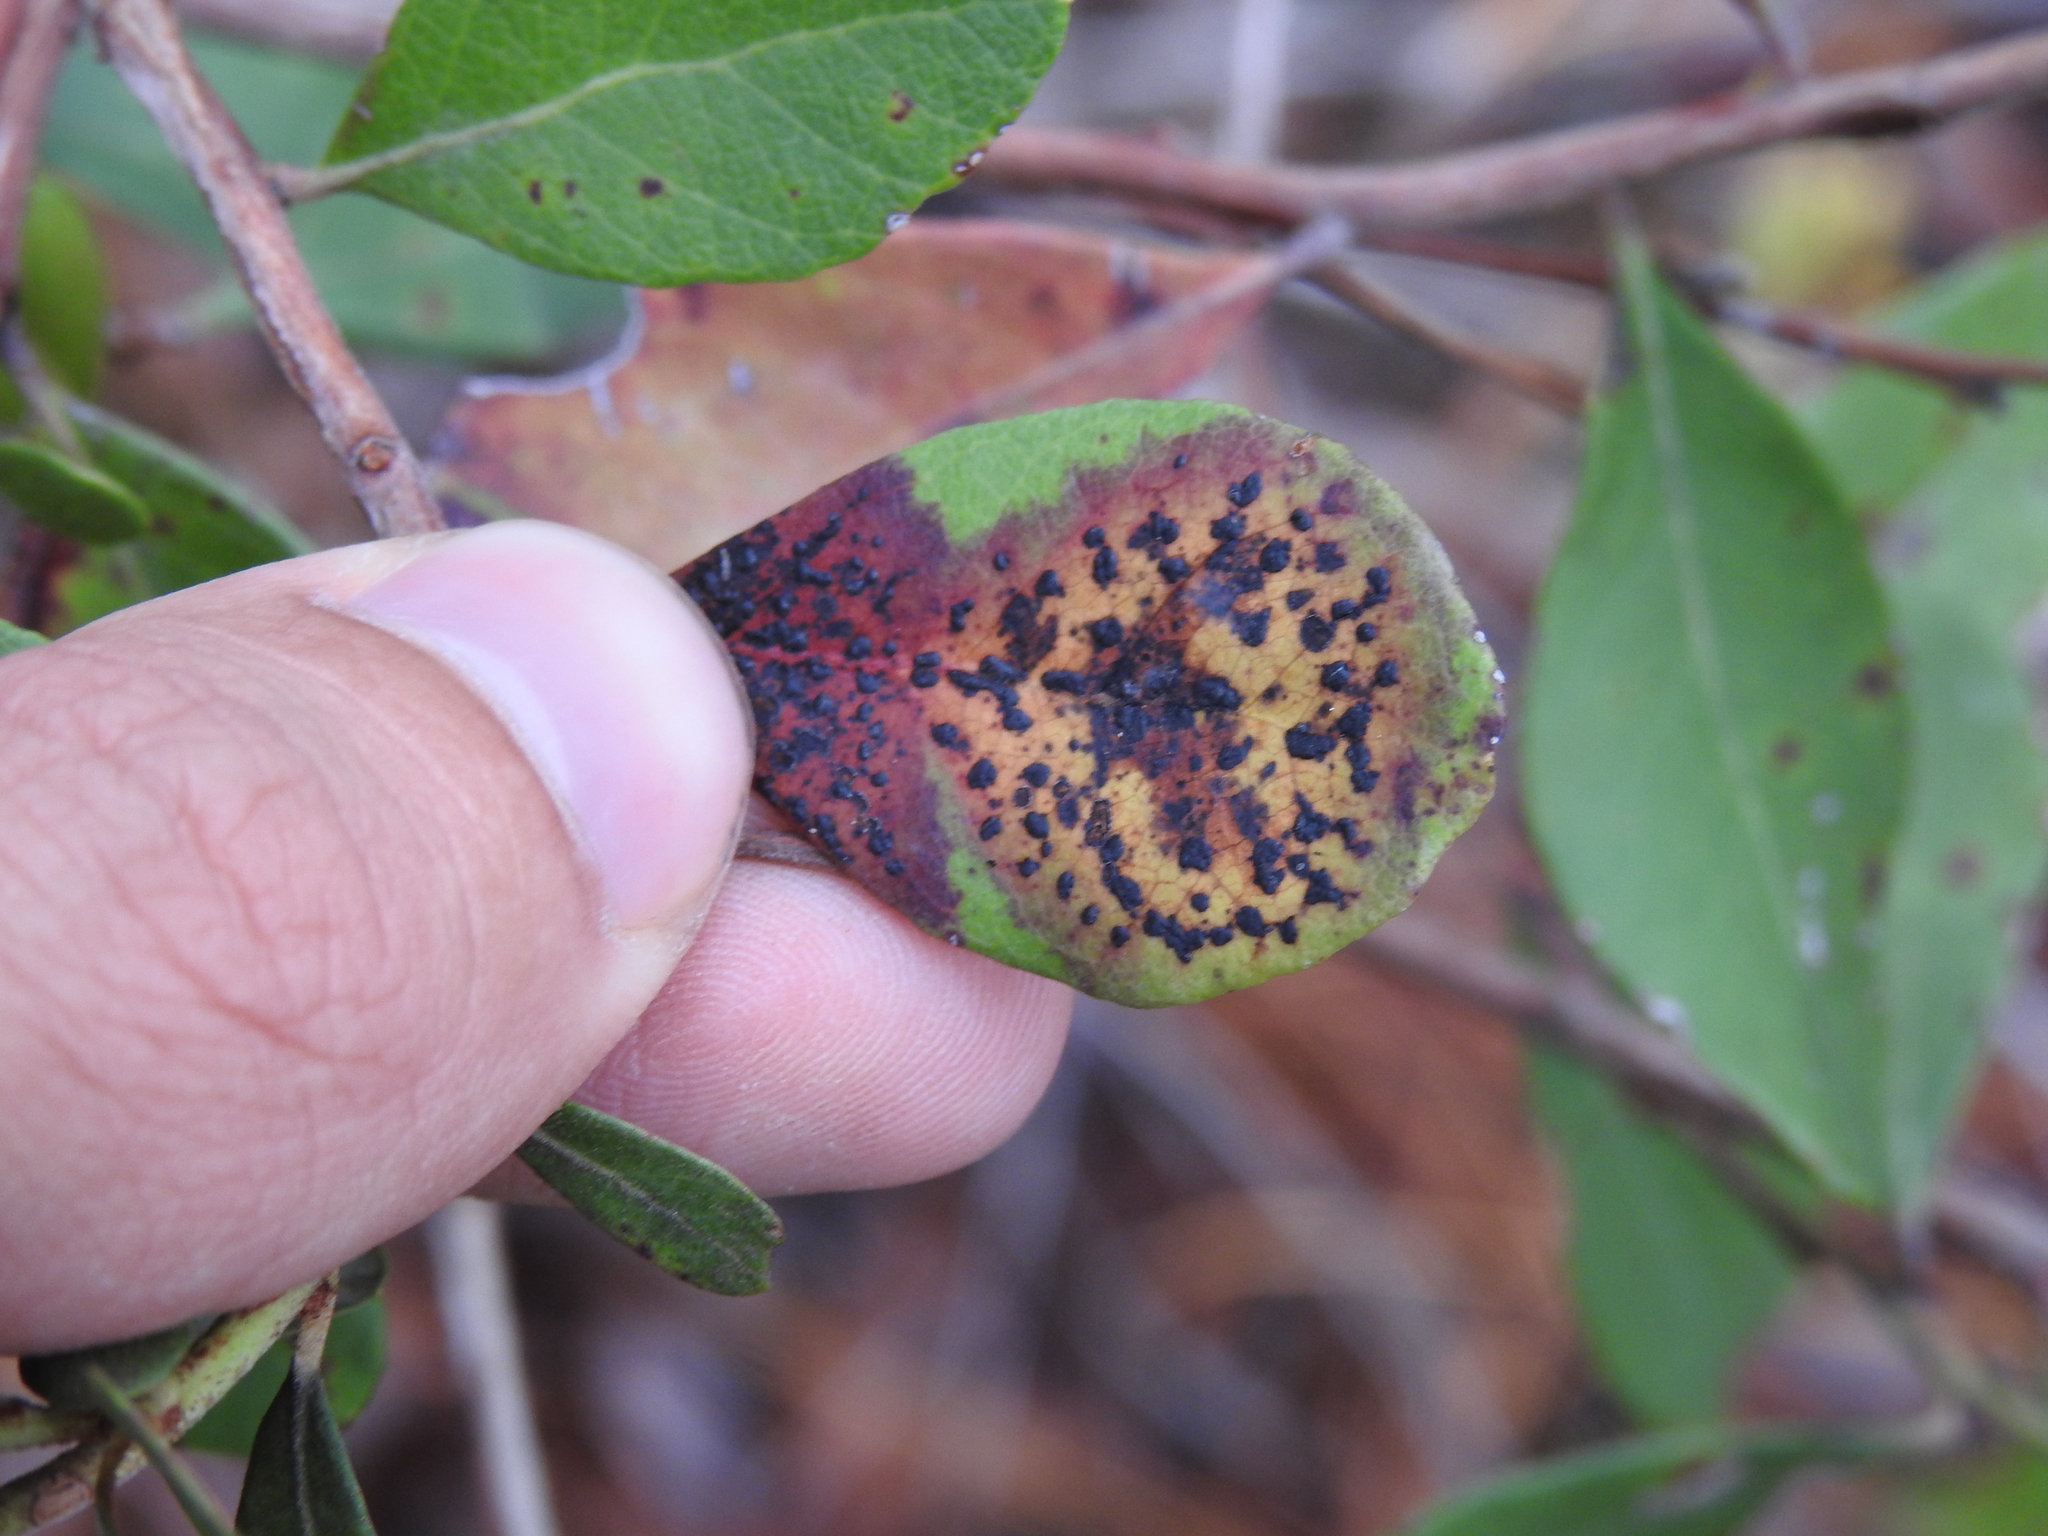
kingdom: Fungi
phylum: Ascomycota
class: Sordariomycetes
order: Phyllachorales
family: Phyllachoraceae
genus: Ophiodothella
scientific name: Ophiodothella angustissima
